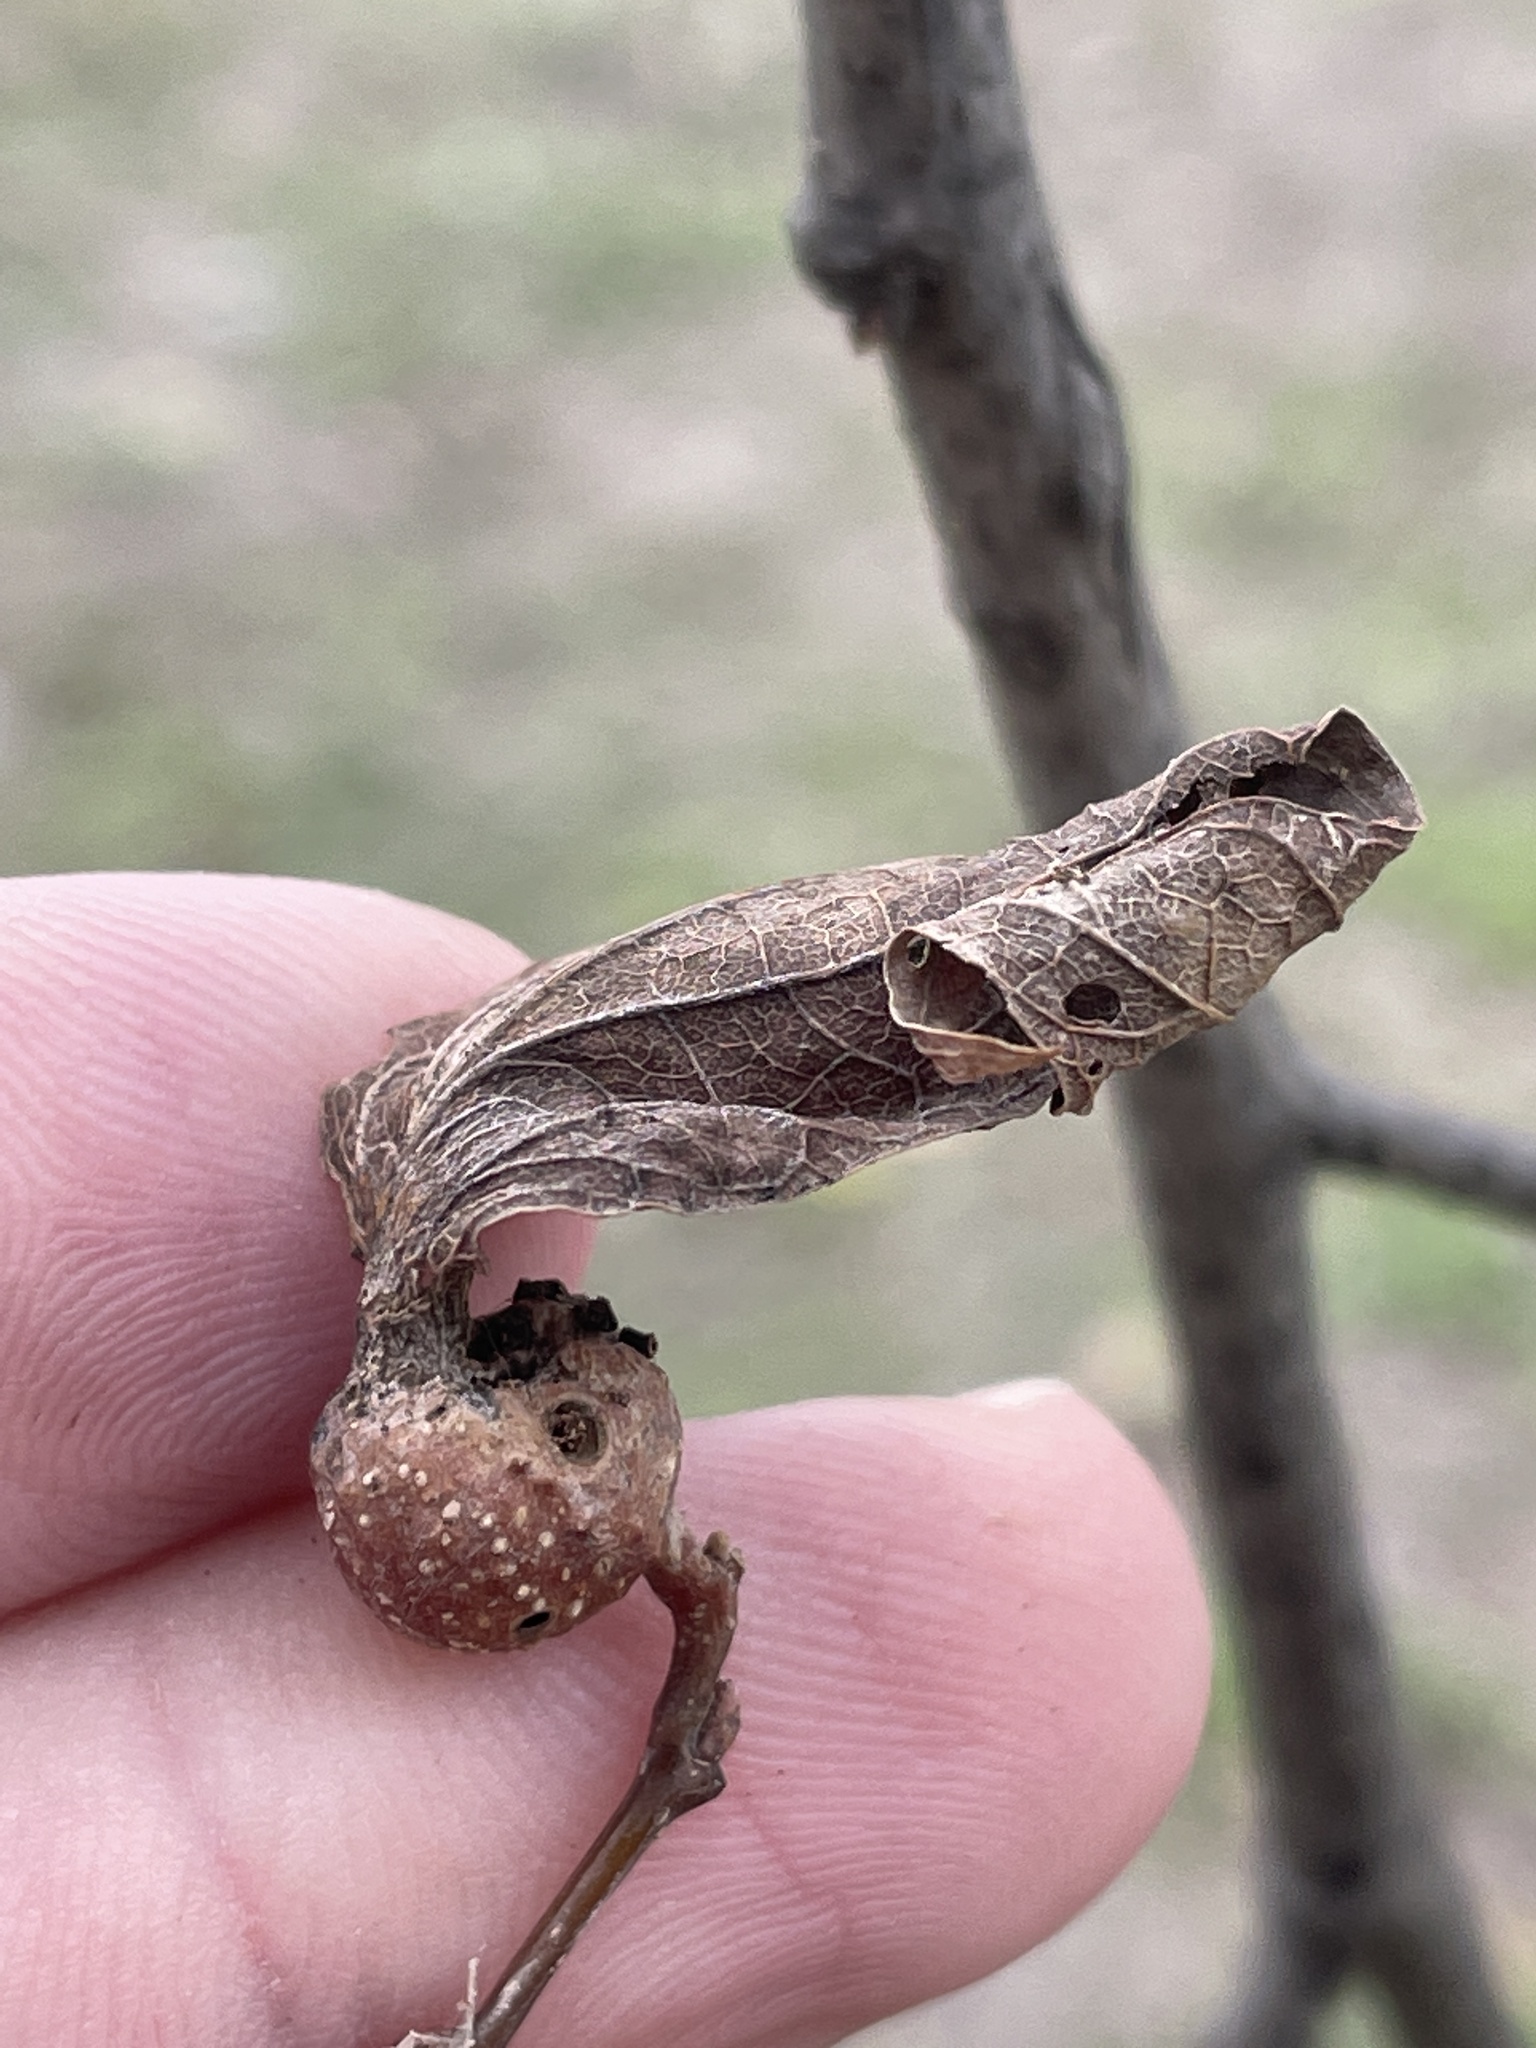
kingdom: Animalia
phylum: Arthropoda
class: Insecta
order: Hemiptera
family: Aphalaridae
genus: Pachypsylla
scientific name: Pachypsylla venusta
